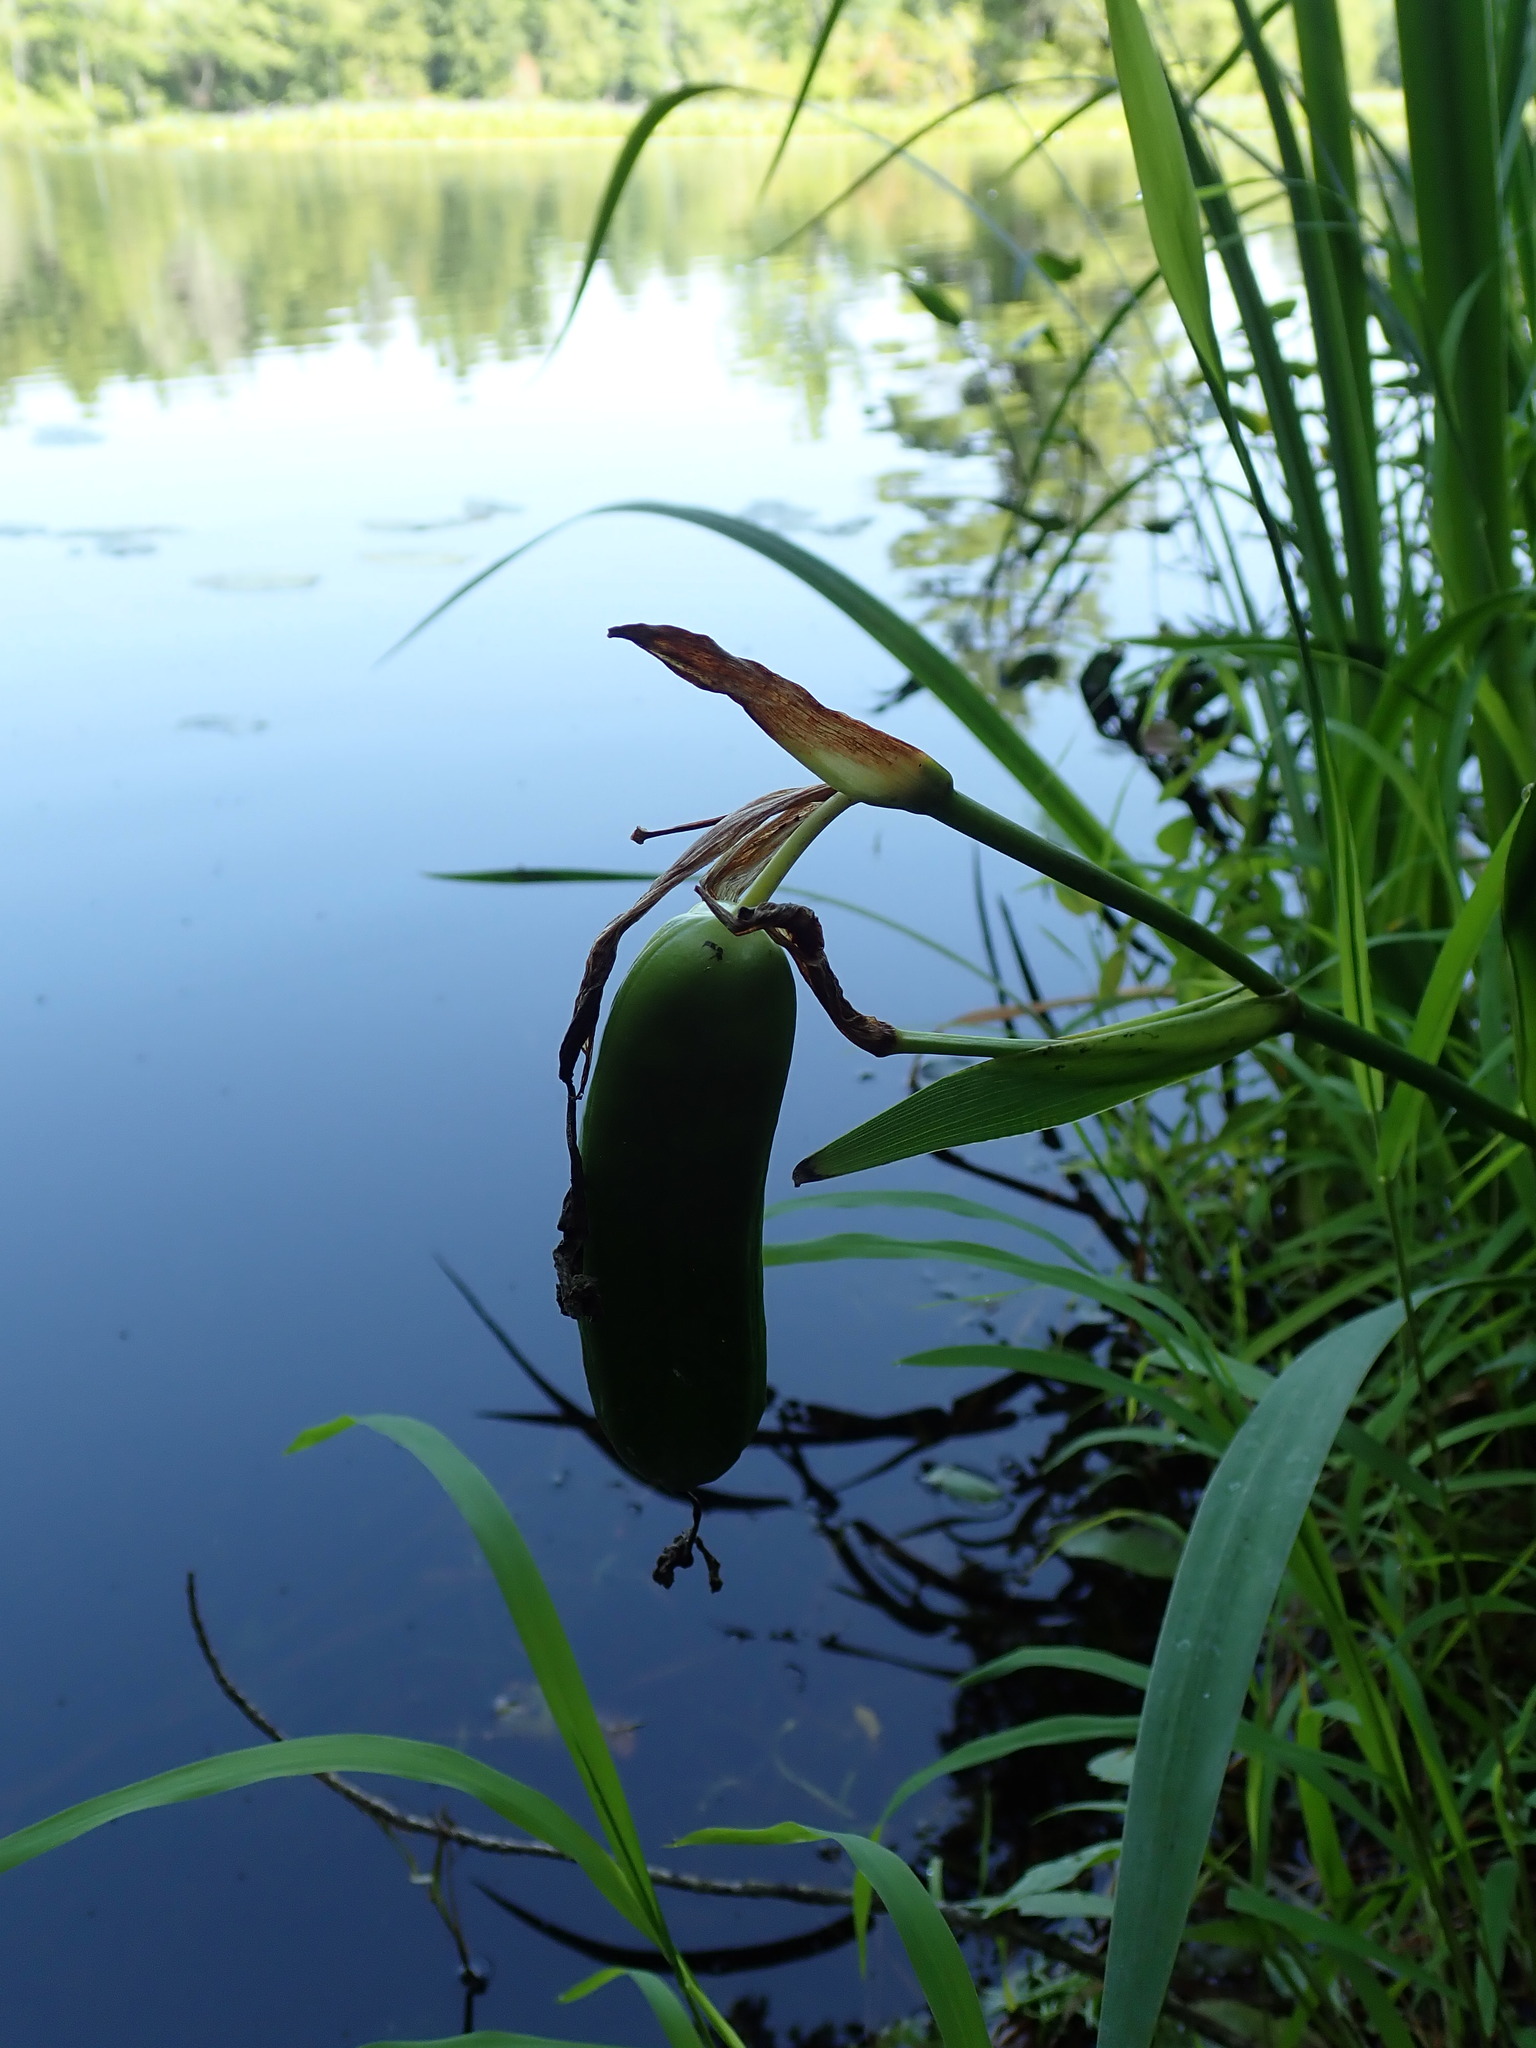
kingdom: Plantae
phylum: Tracheophyta
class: Liliopsida
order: Asparagales
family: Iridaceae
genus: Iris
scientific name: Iris pseudacorus
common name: Yellow flag
